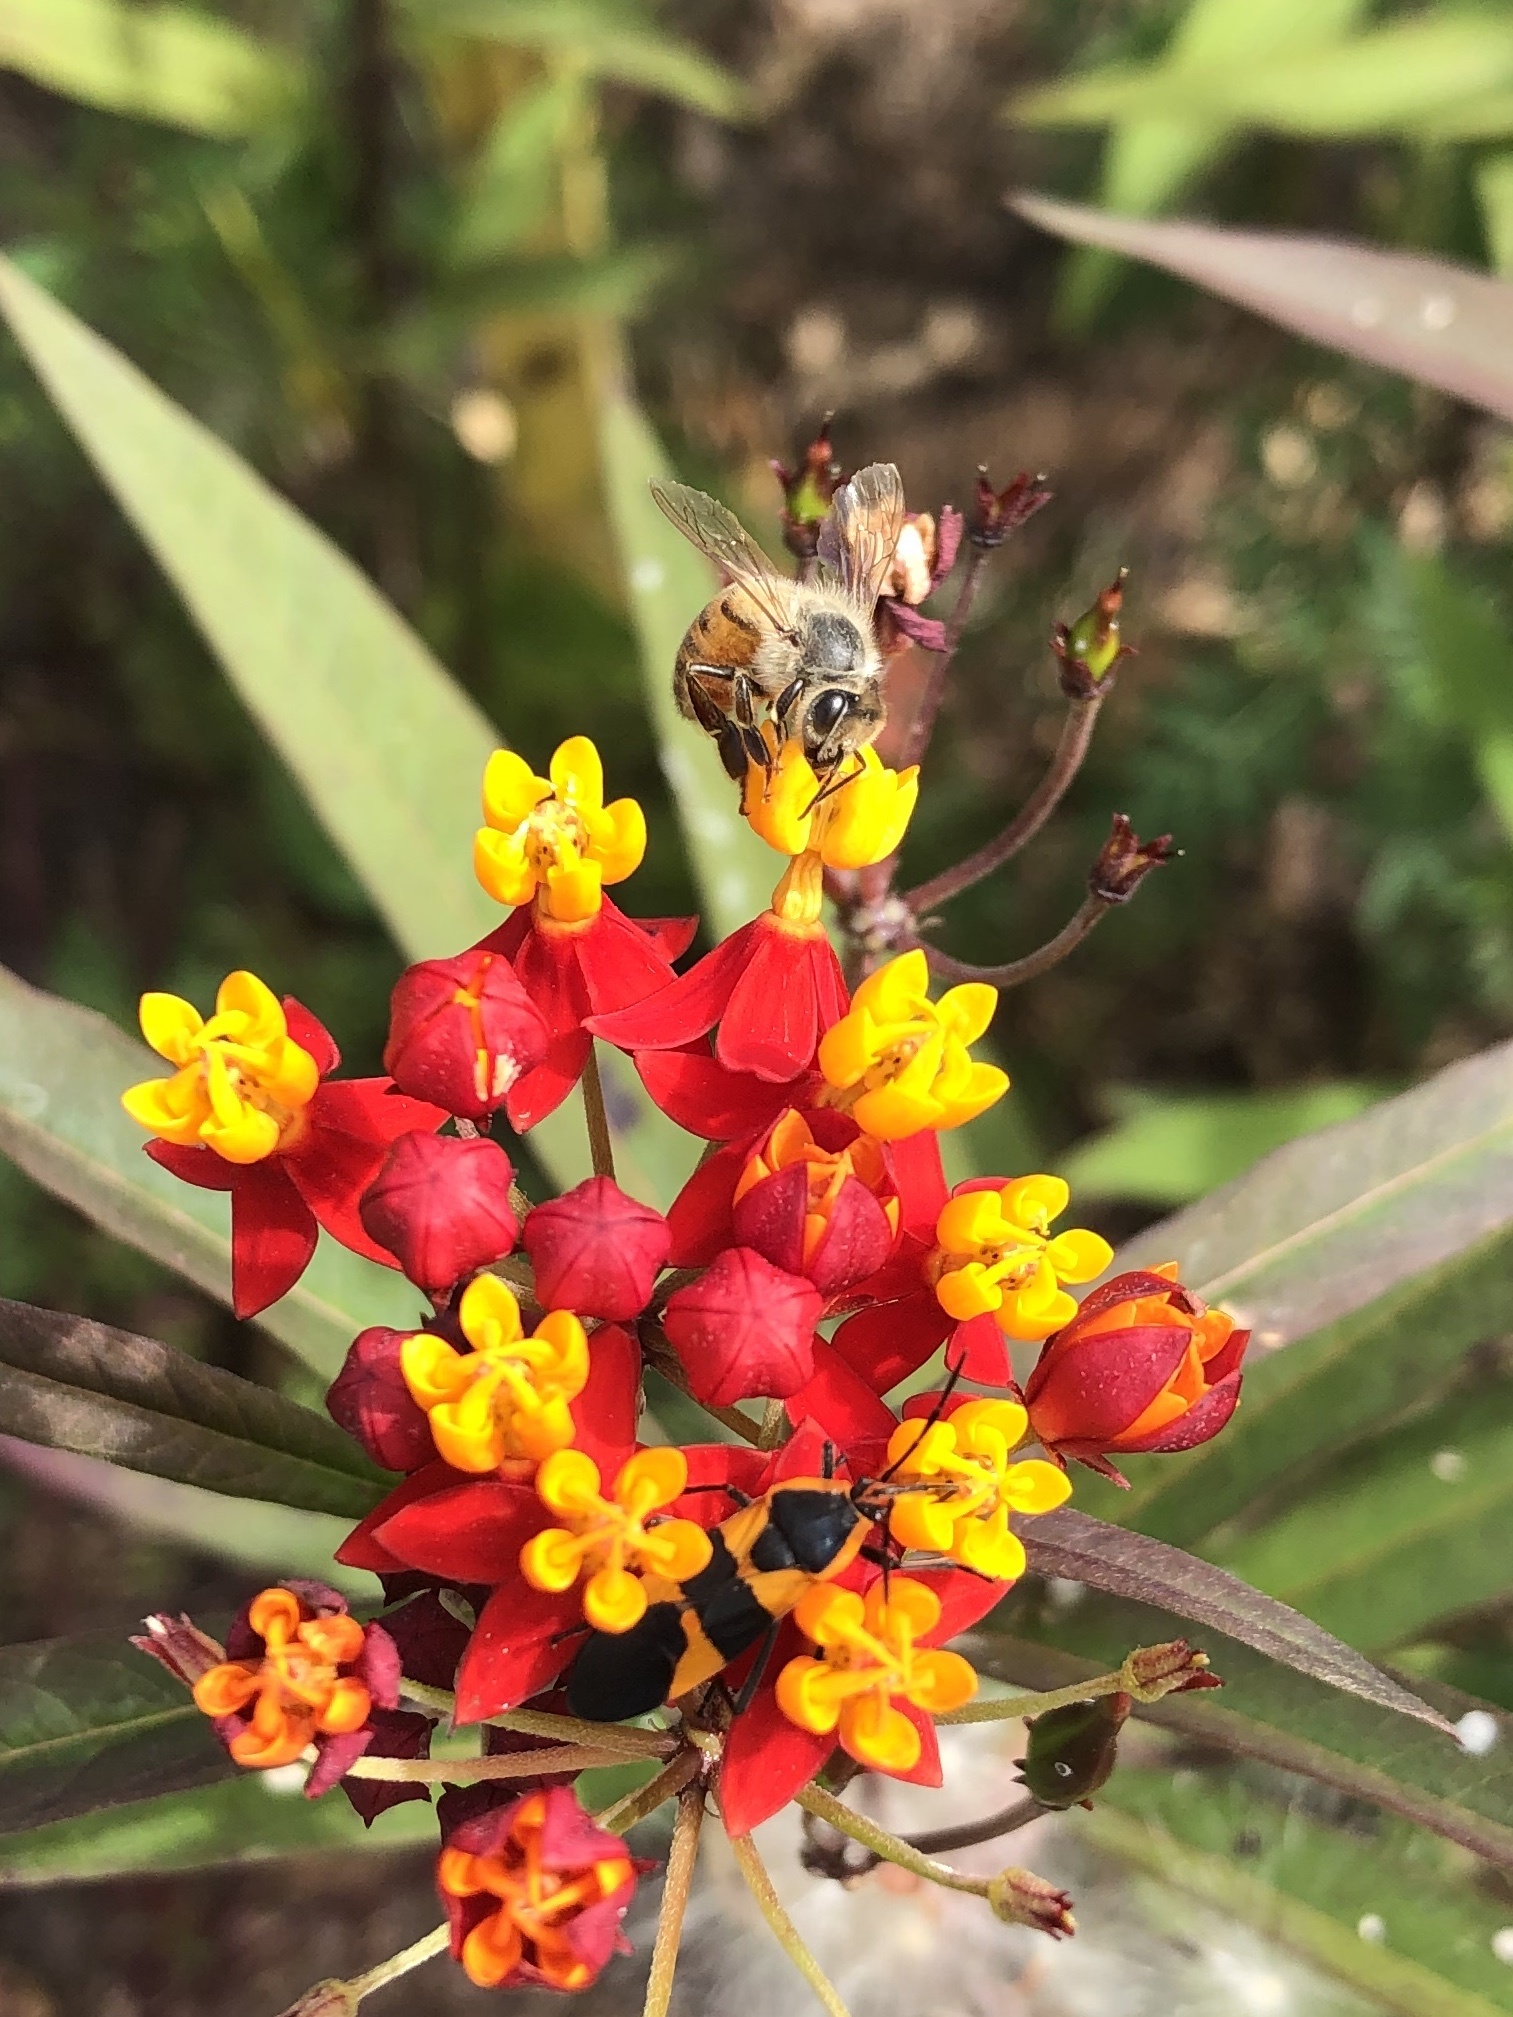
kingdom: Animalia
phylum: Arthropoda
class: Insecta
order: Hymenoptera
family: Apidae
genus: Apis
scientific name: Apis mellifera
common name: Honey bee
